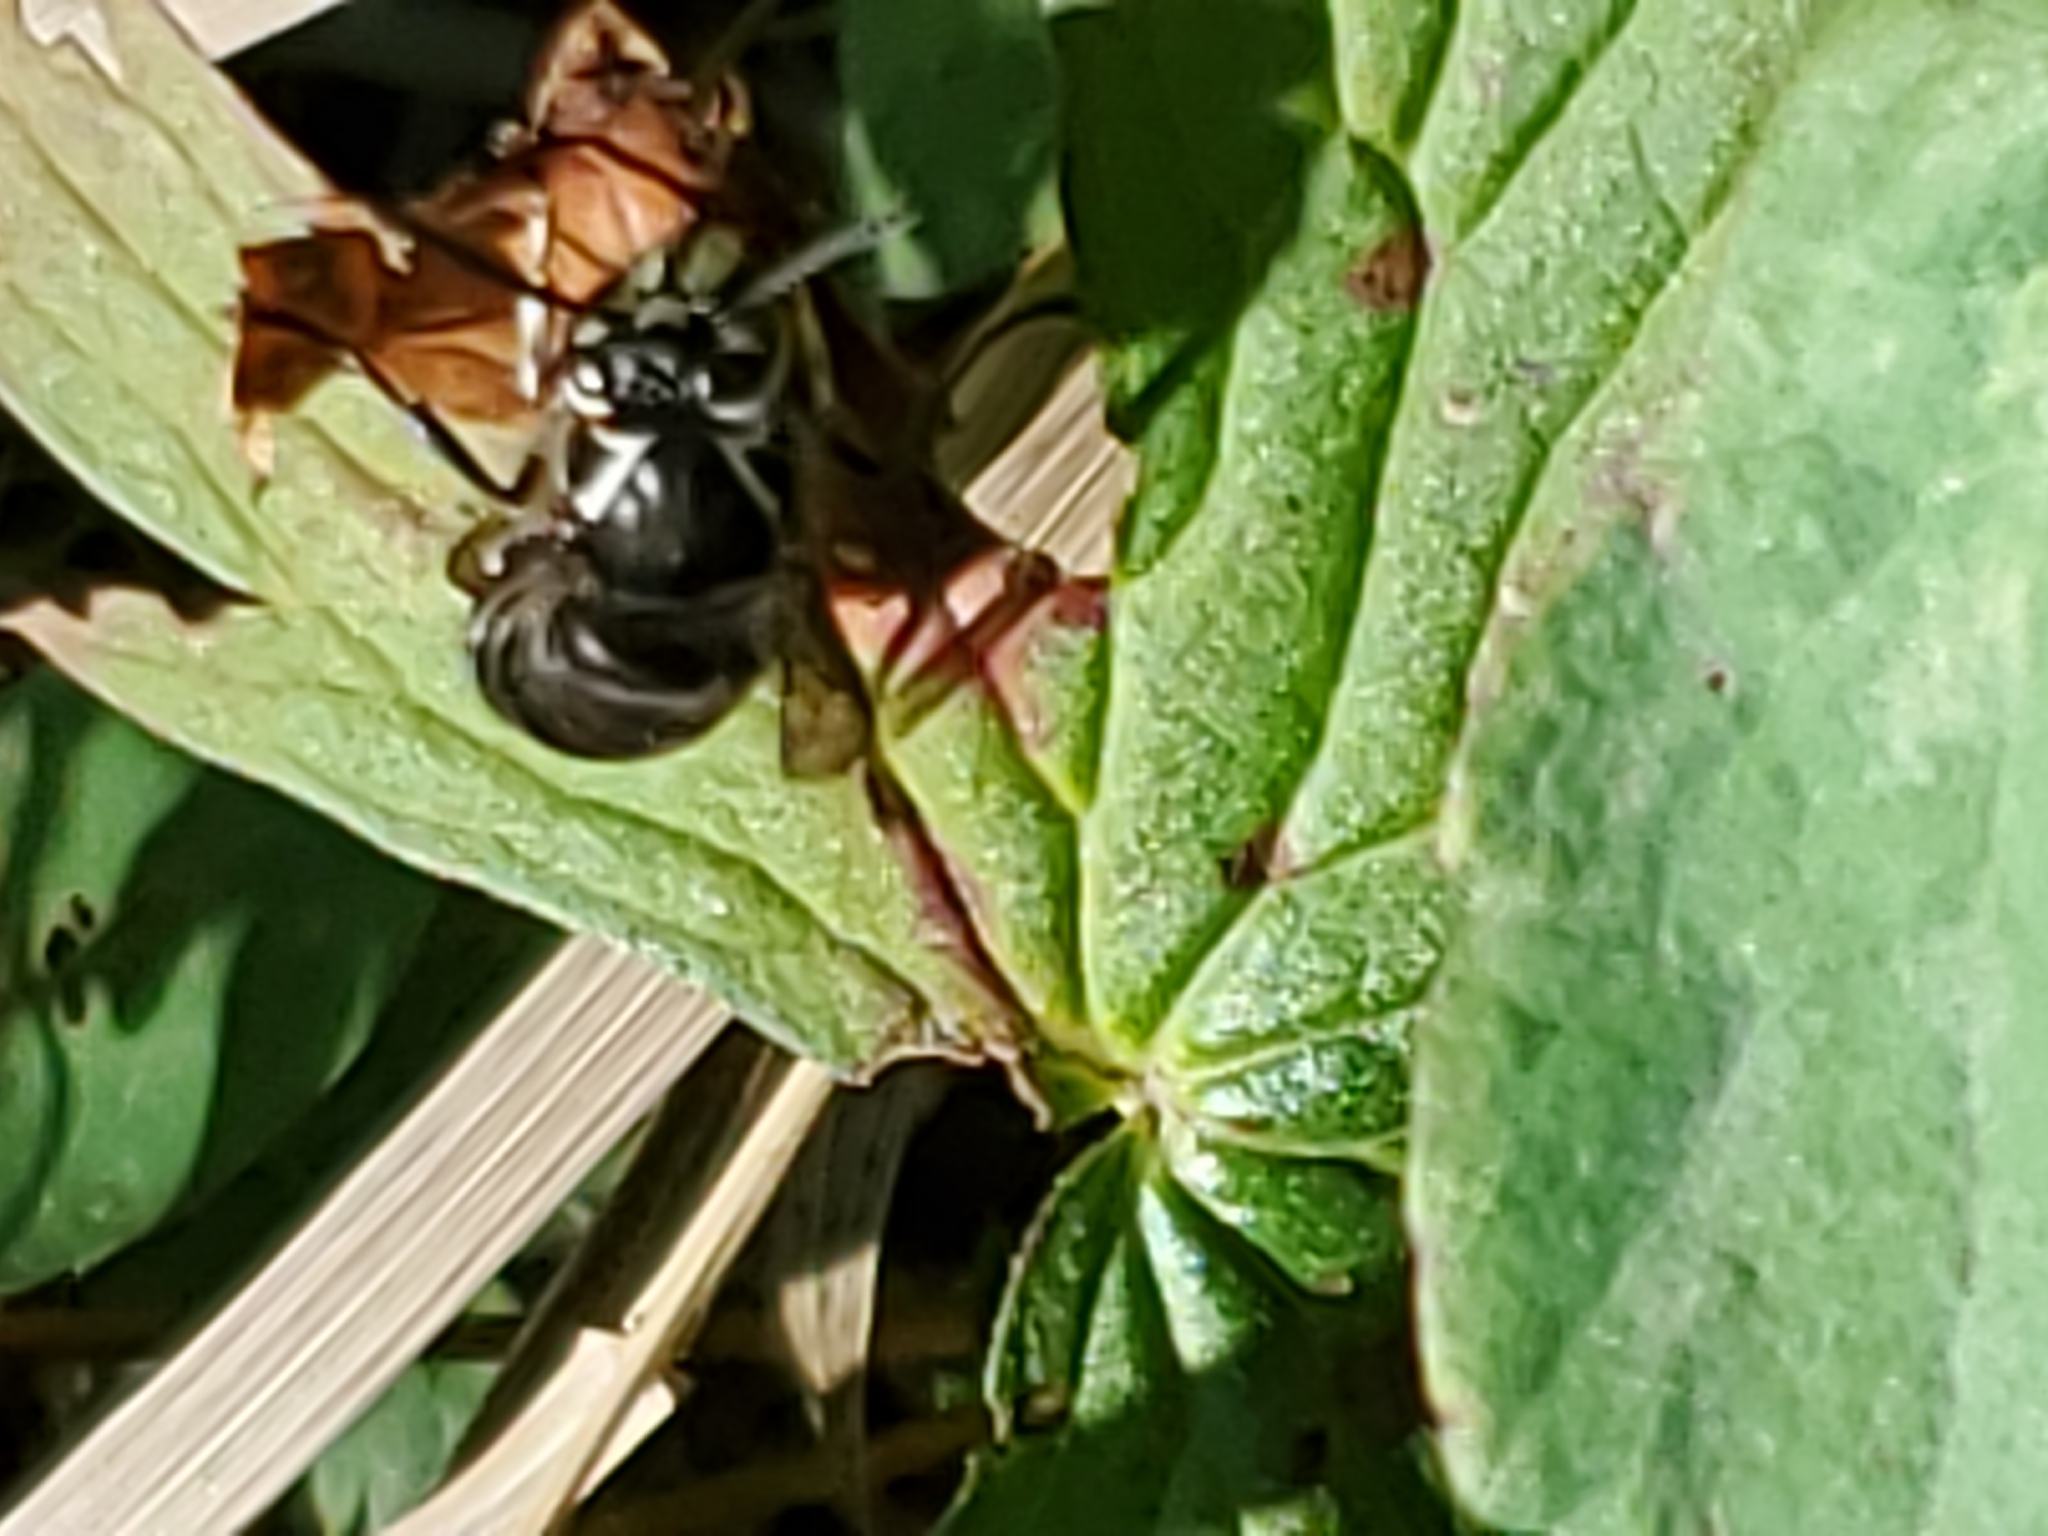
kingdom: Animalia
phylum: Arthropoda
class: Insecta
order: Hymenoptera
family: Vespidae
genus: Dolichovespula
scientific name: Dolichovespula maculata
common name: Bald-faced hornet
